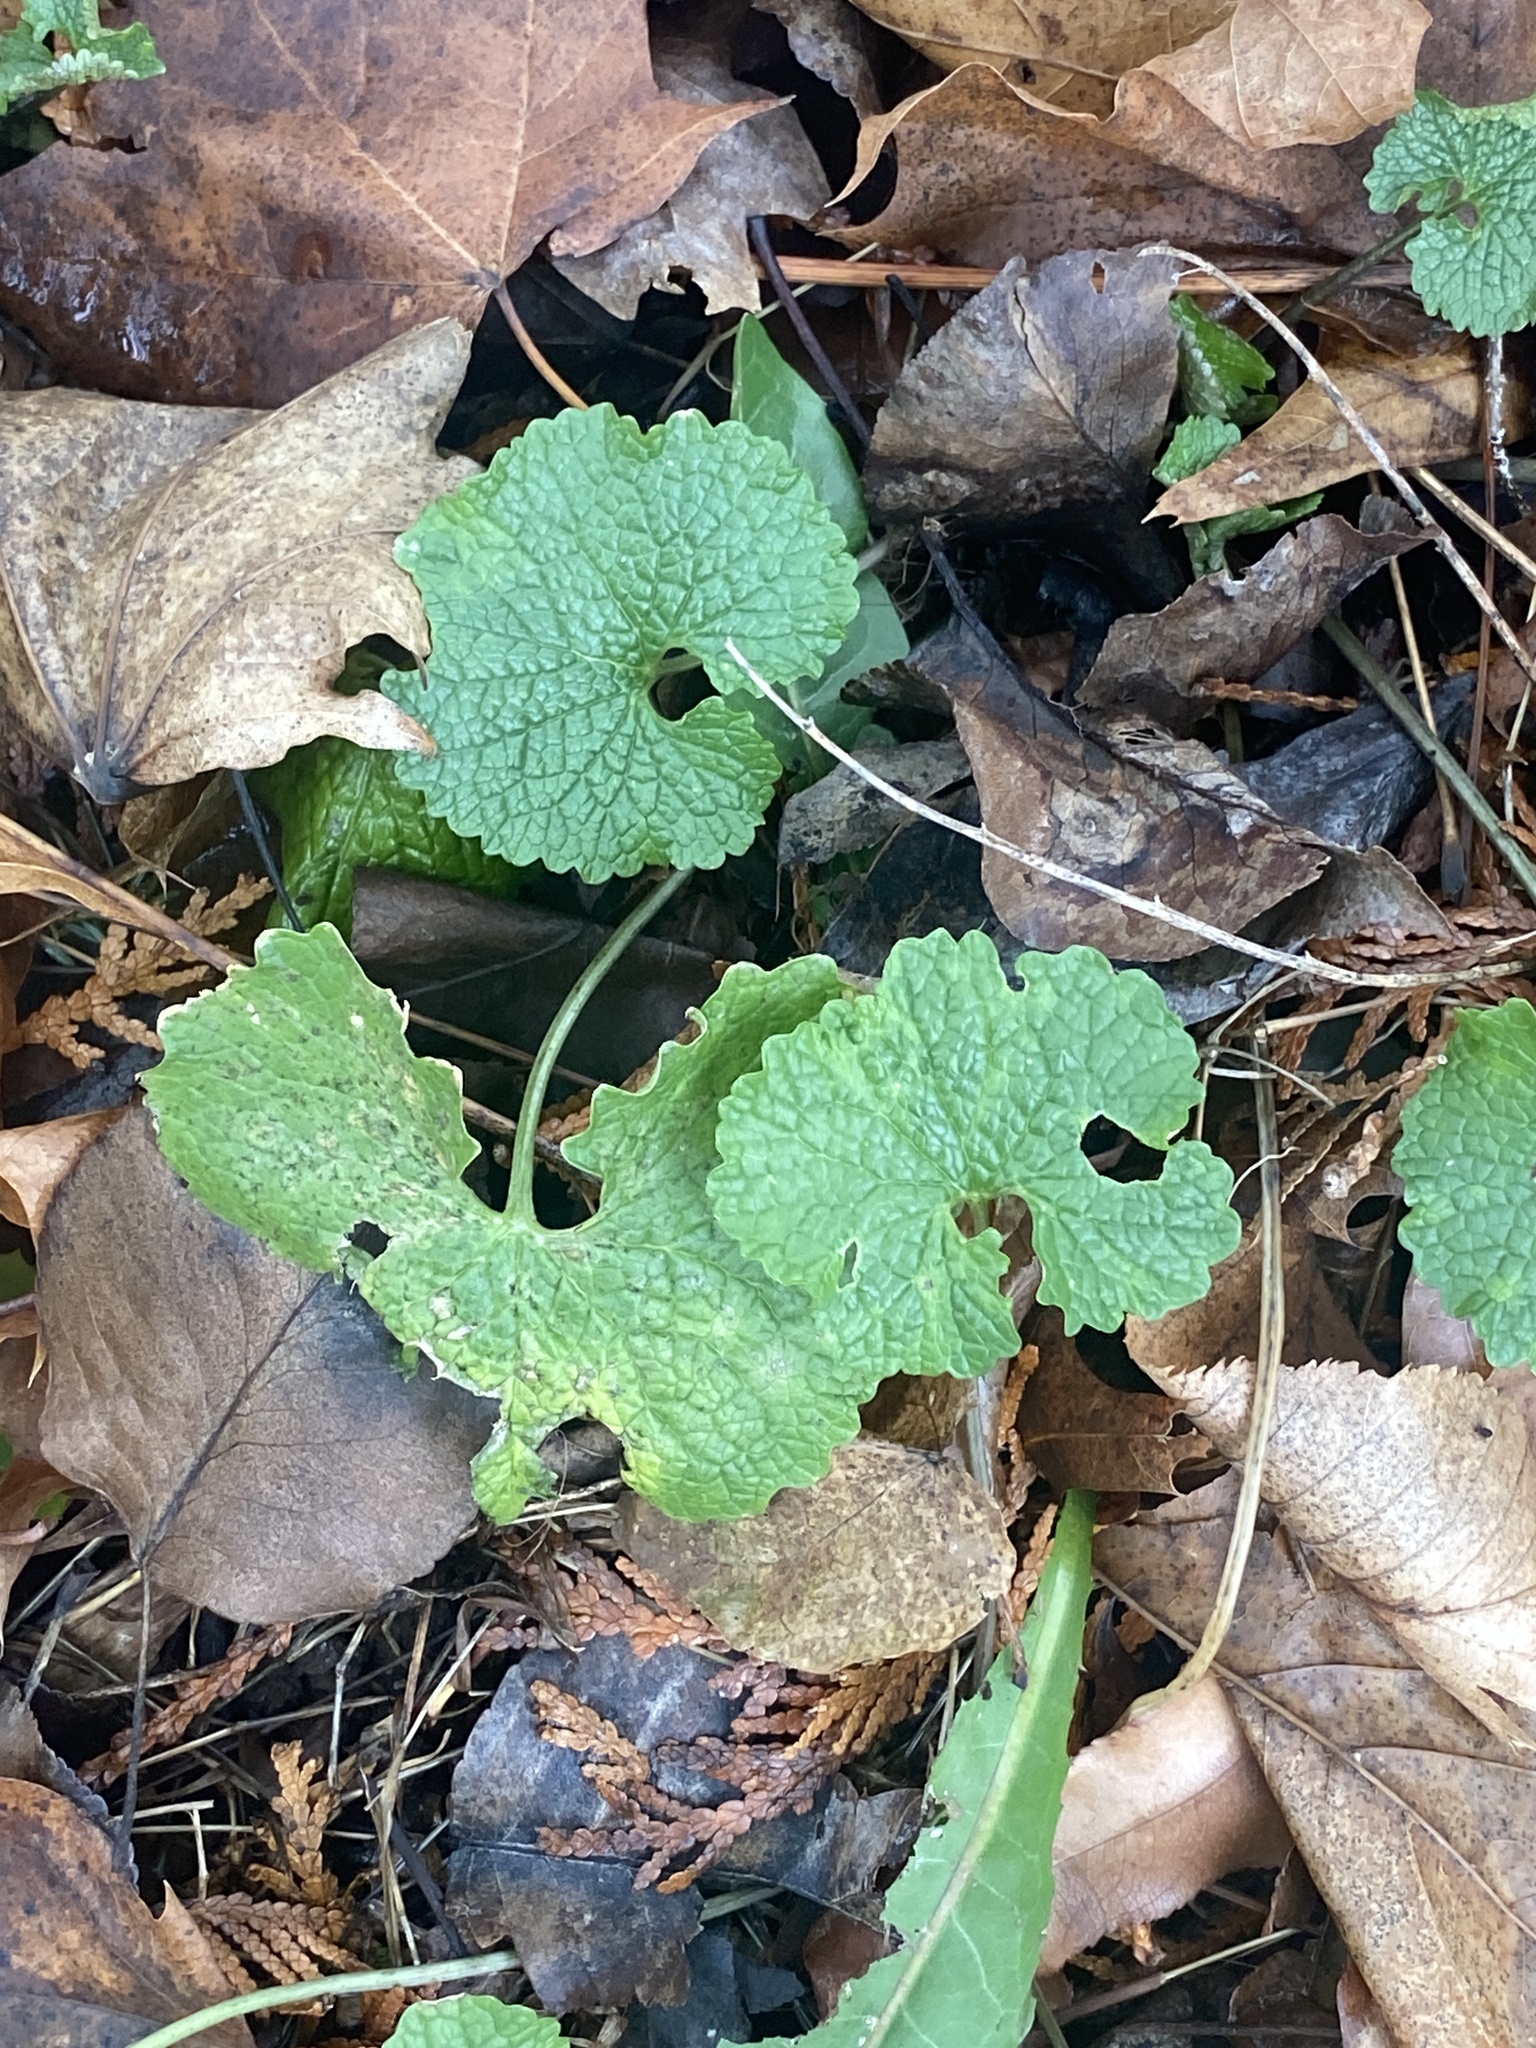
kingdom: Plantae
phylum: Tracheophyta
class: Magnoliopsida
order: Brassicales
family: Brassicaceae
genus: Alliaria
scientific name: Alliaria petiolata
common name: Garlic mustard
